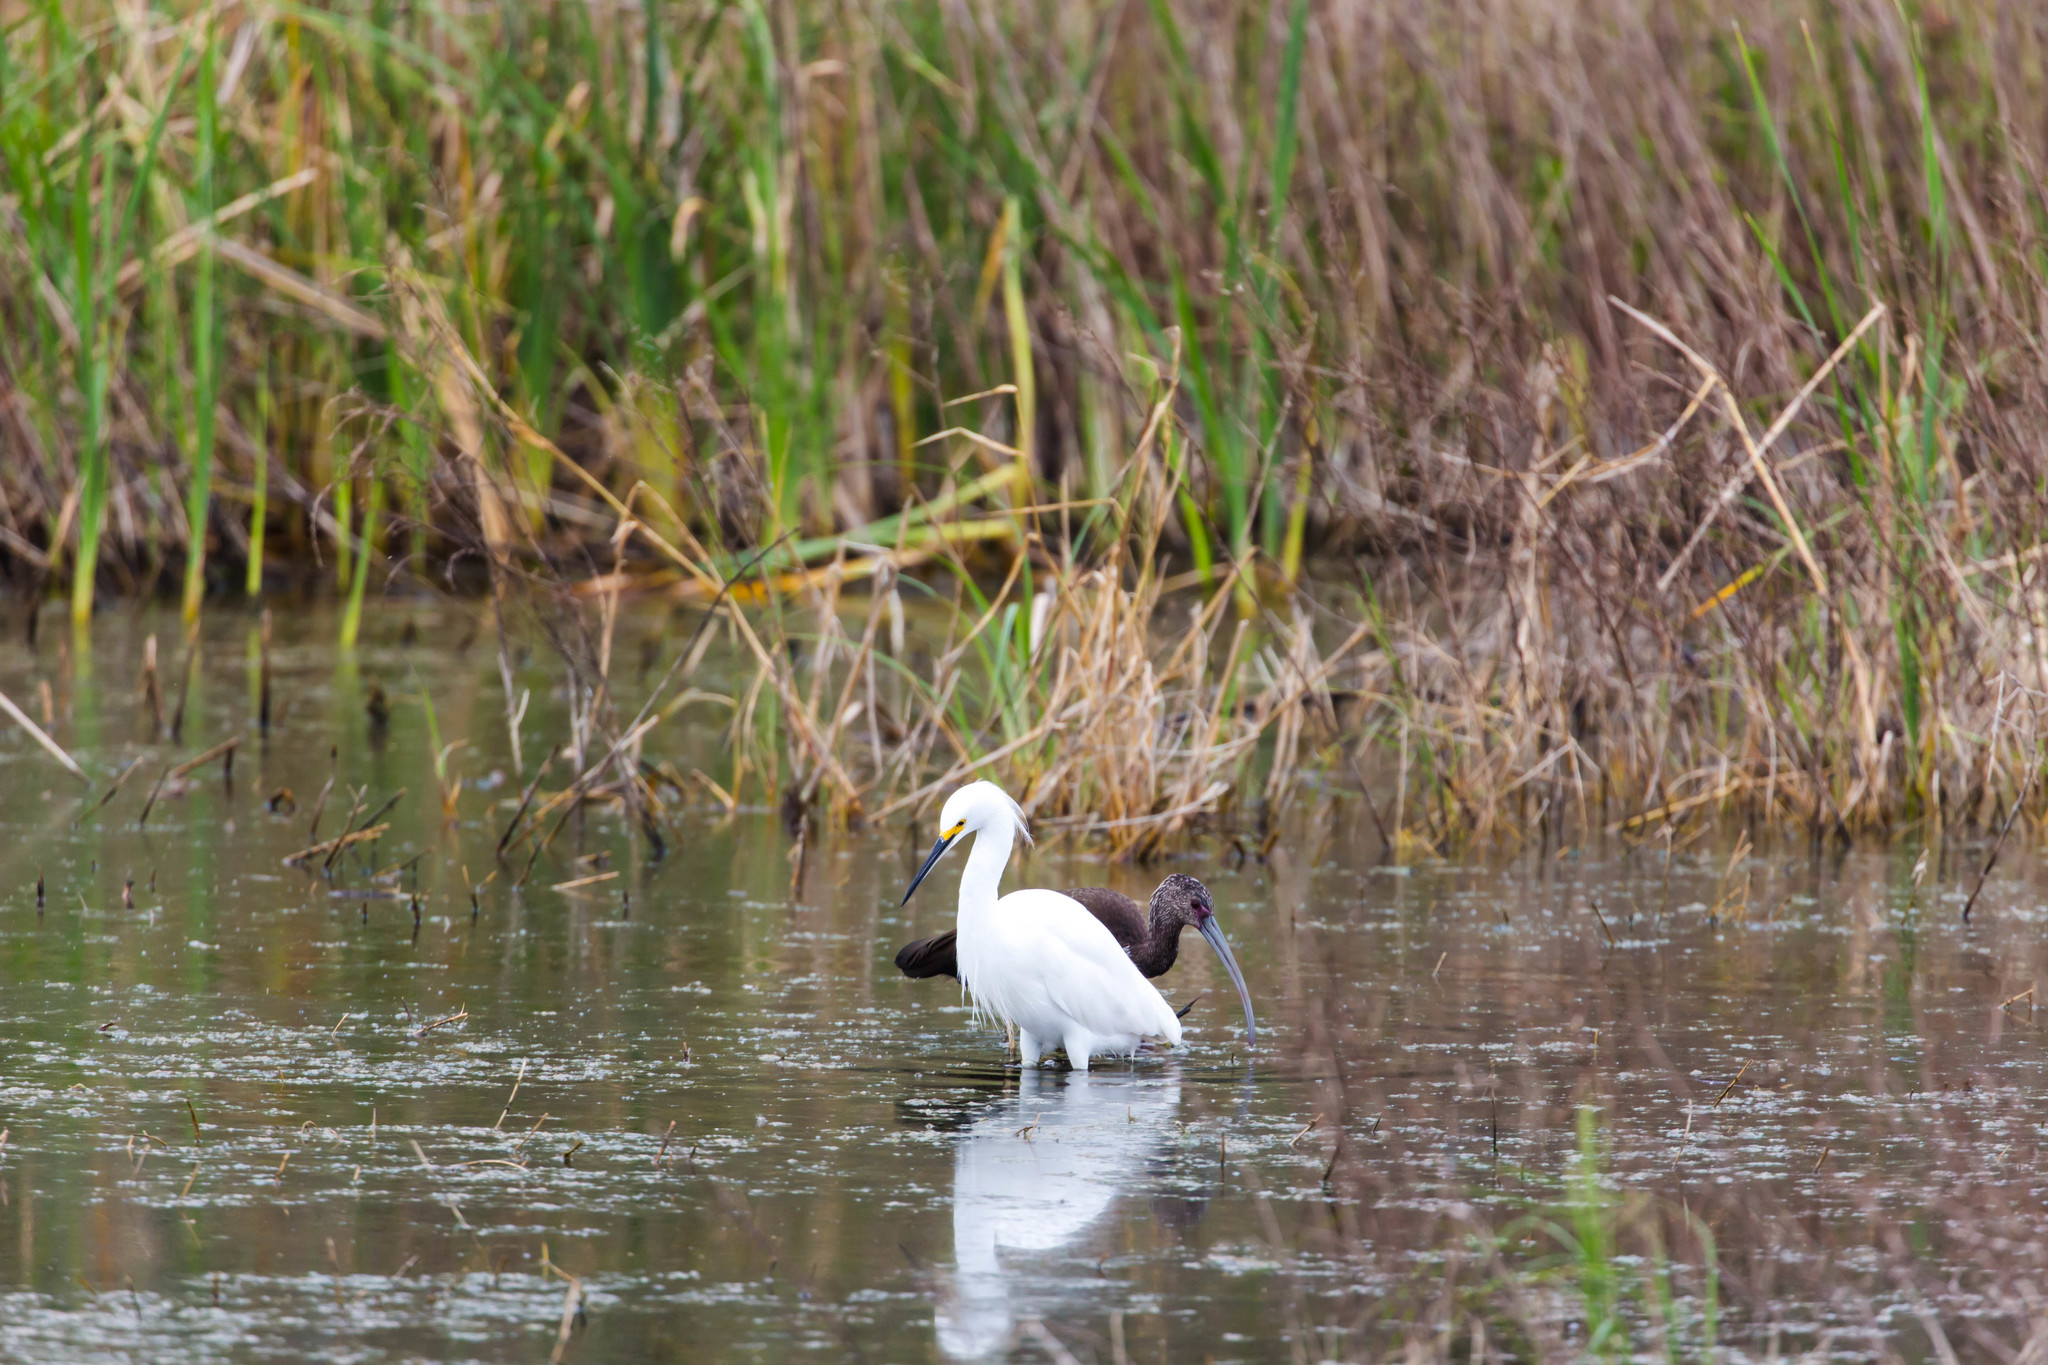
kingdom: Animalia
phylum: Chordata
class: Aves
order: Pelecaniformes
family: Ardeidae
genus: Egretta
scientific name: Egretta thula
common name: Snowy egret
